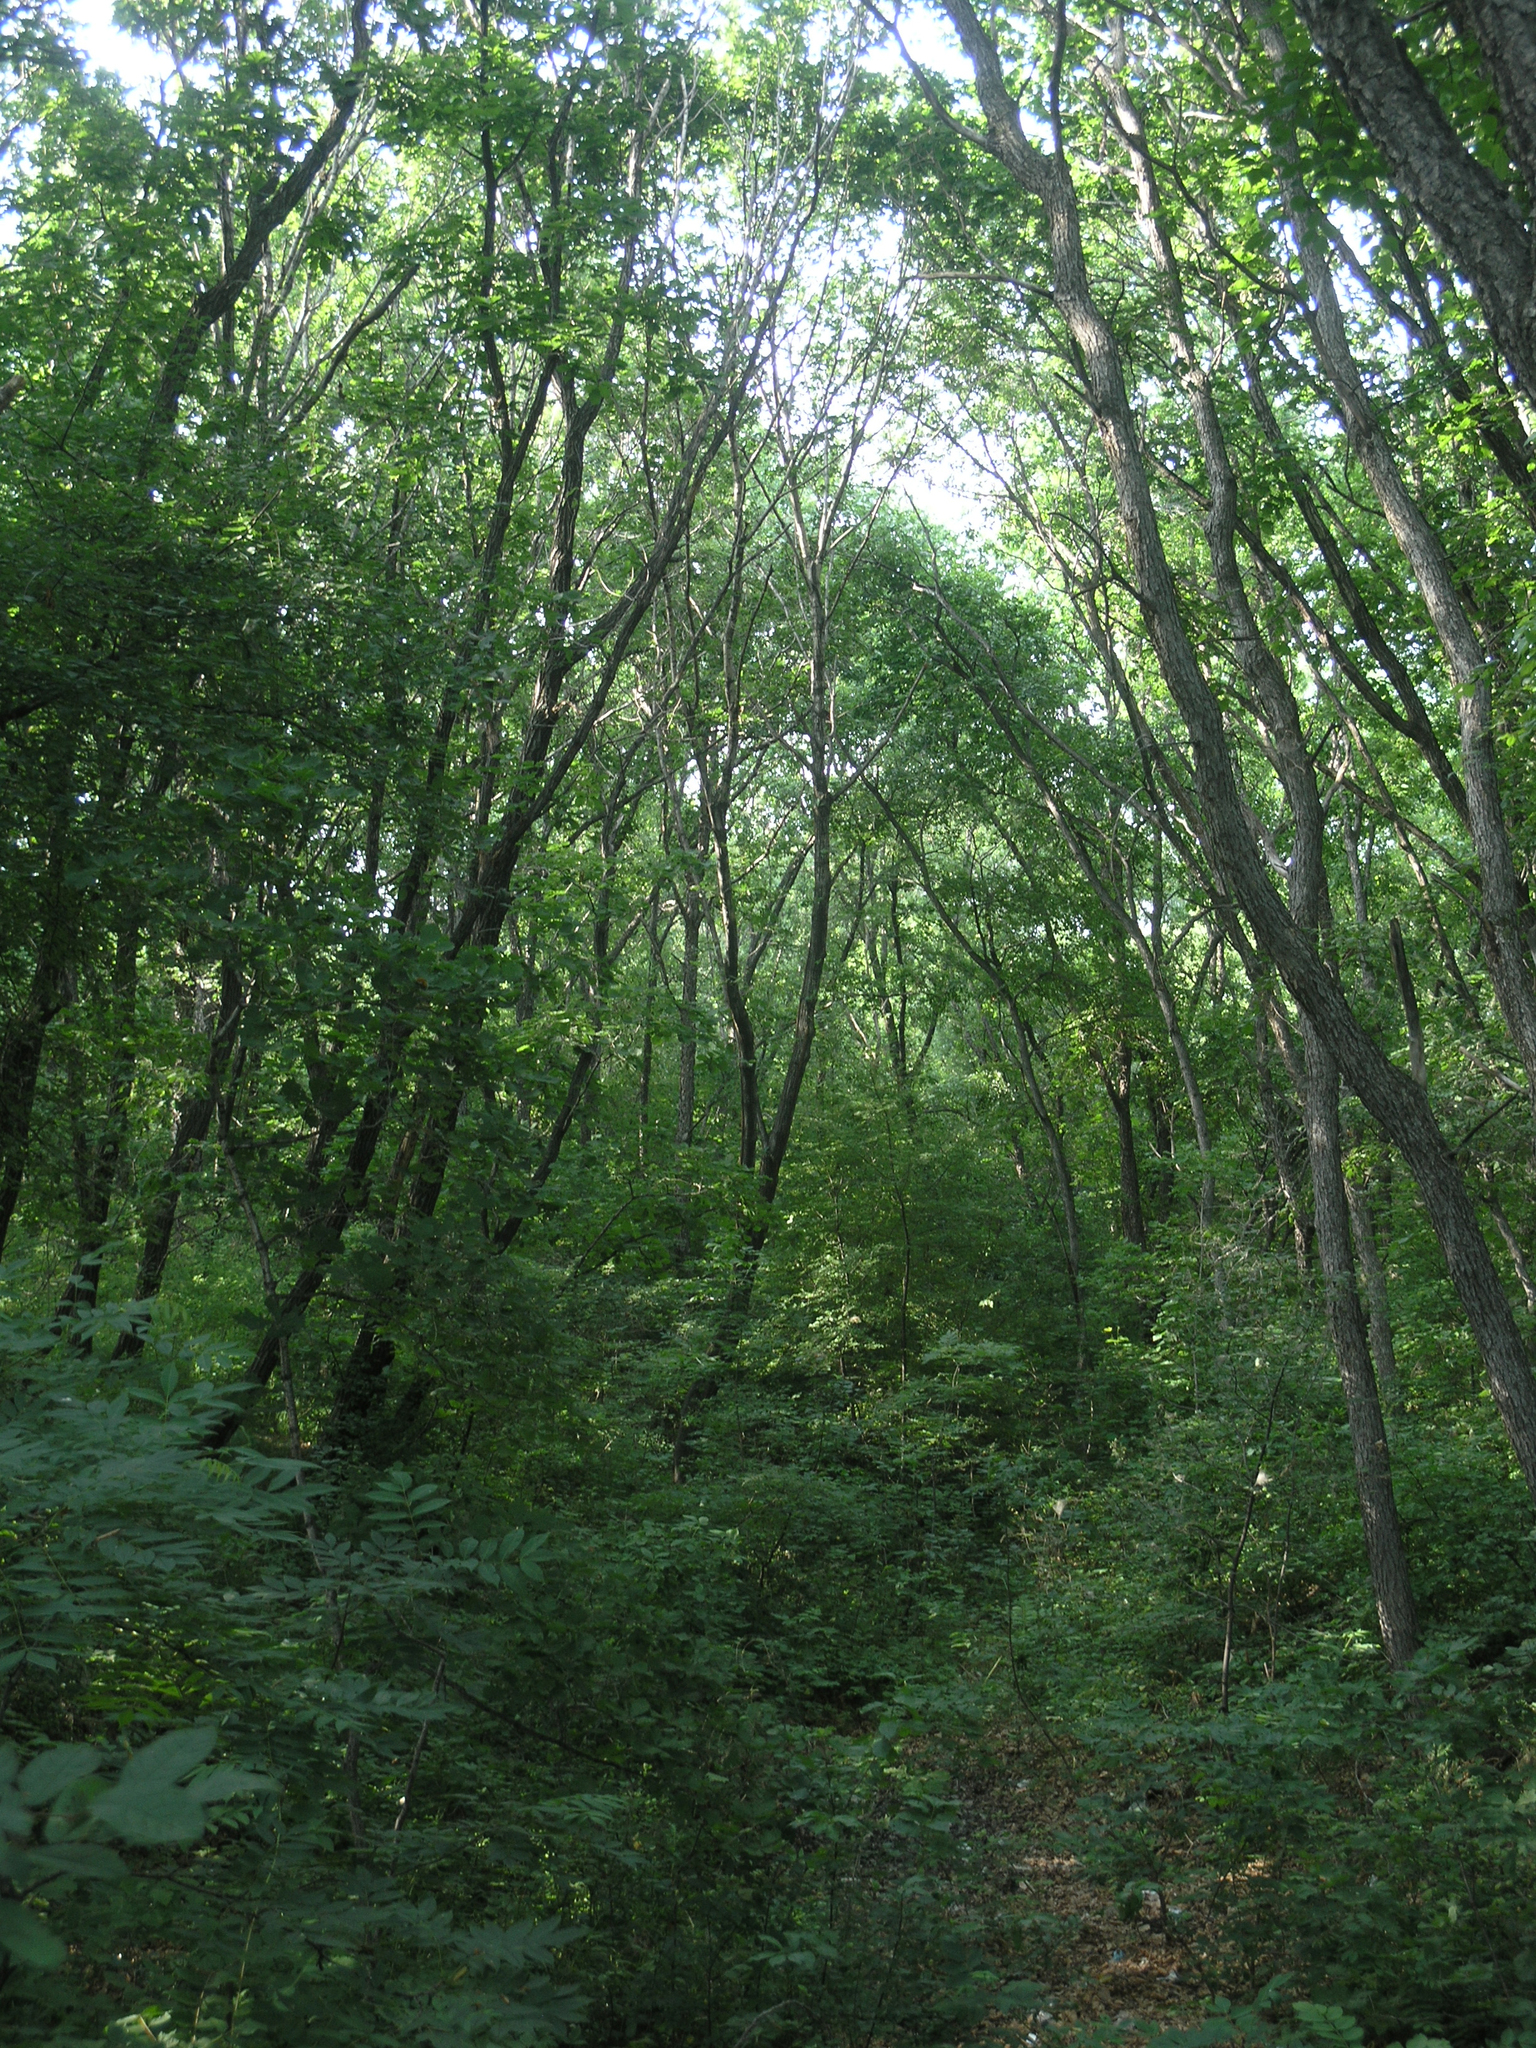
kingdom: Plantae
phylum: Tracheophyta
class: Magnoliopsida
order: Fagales
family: Betulaceae
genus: Betula
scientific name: Betula dauurica
